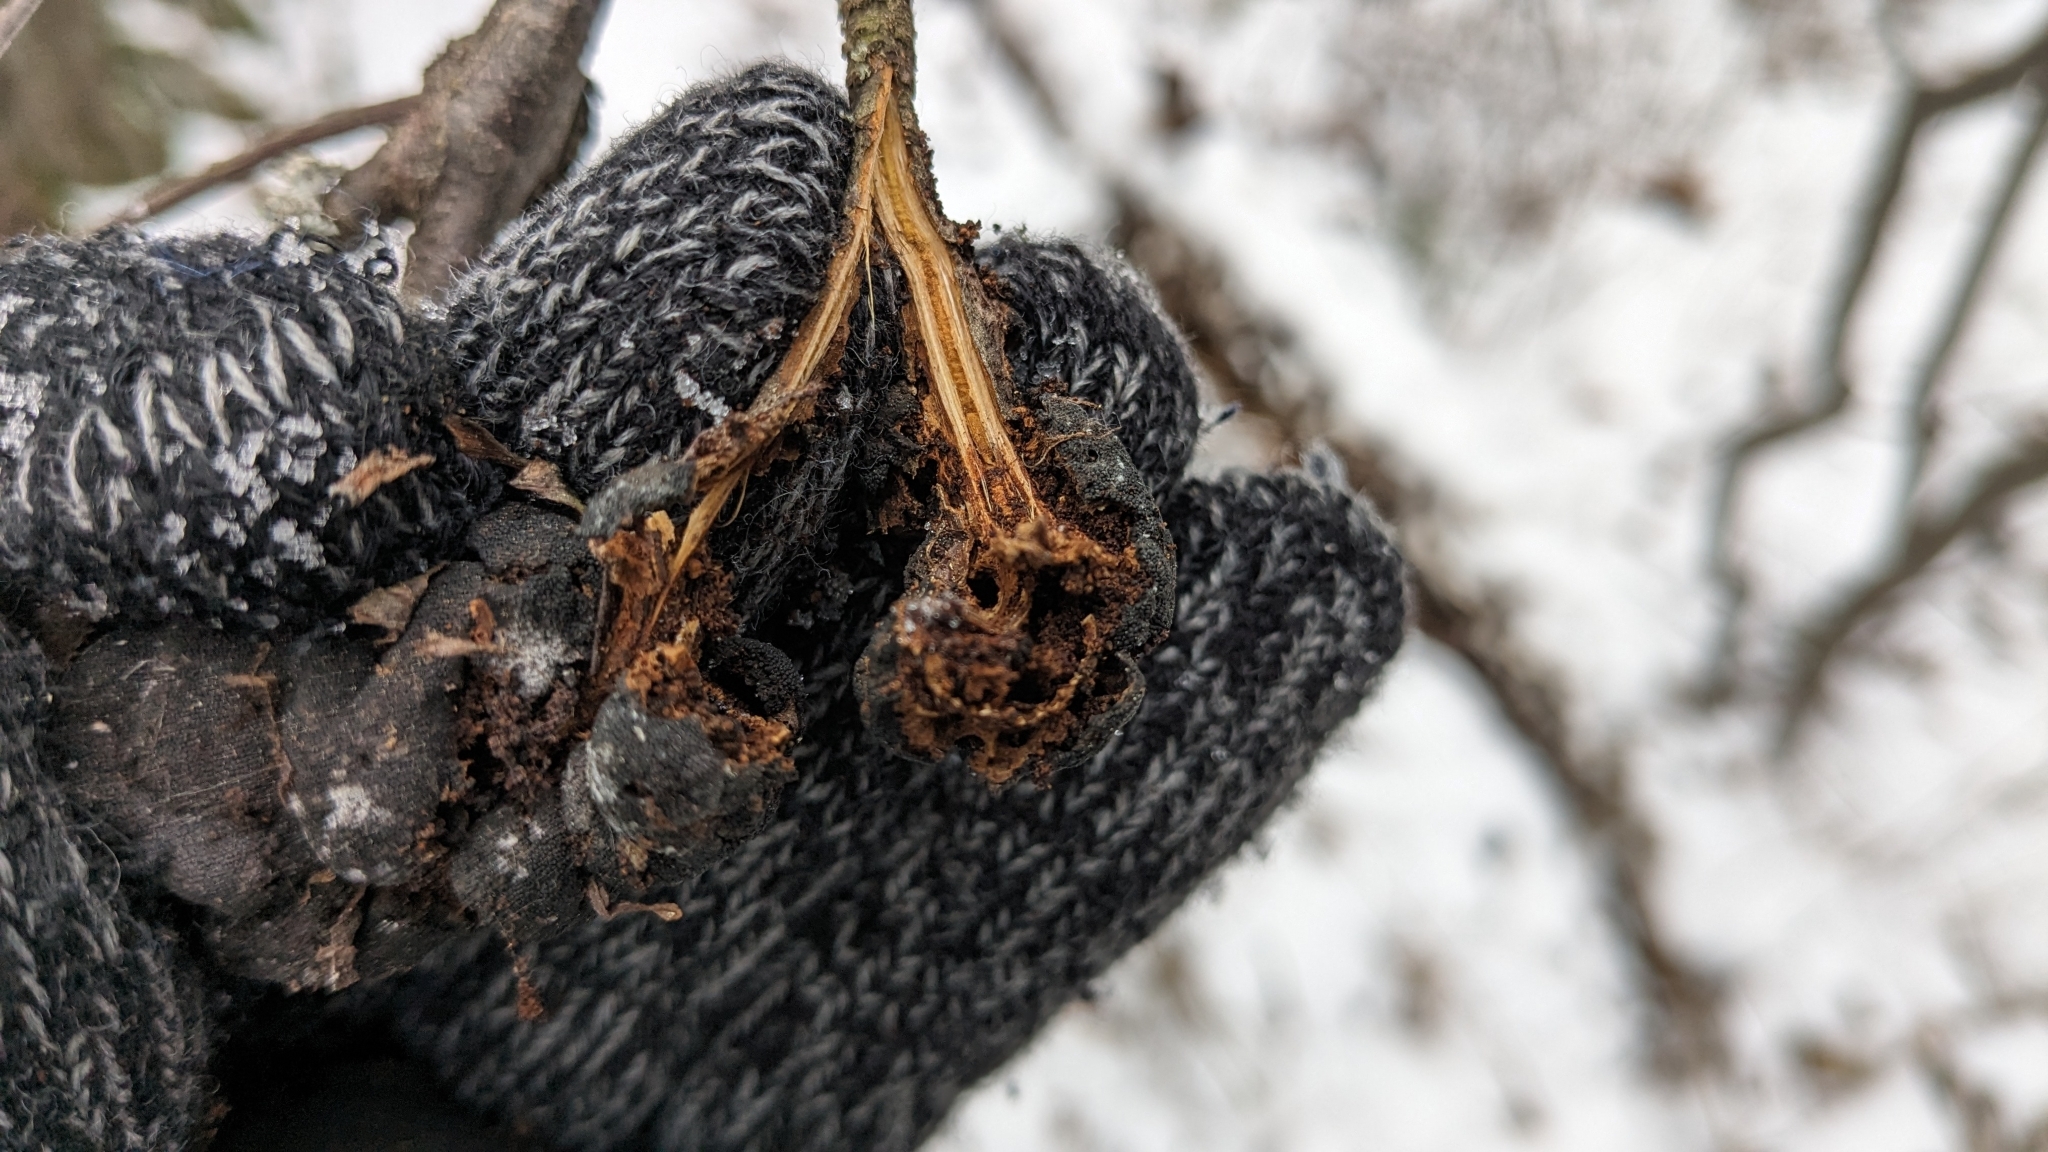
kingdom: Fungi
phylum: Ascomycota
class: Dothideomycetes
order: Venturiales
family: Venturiaceae
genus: Apiosporina
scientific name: Apiosporina morbosa
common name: Black knot
